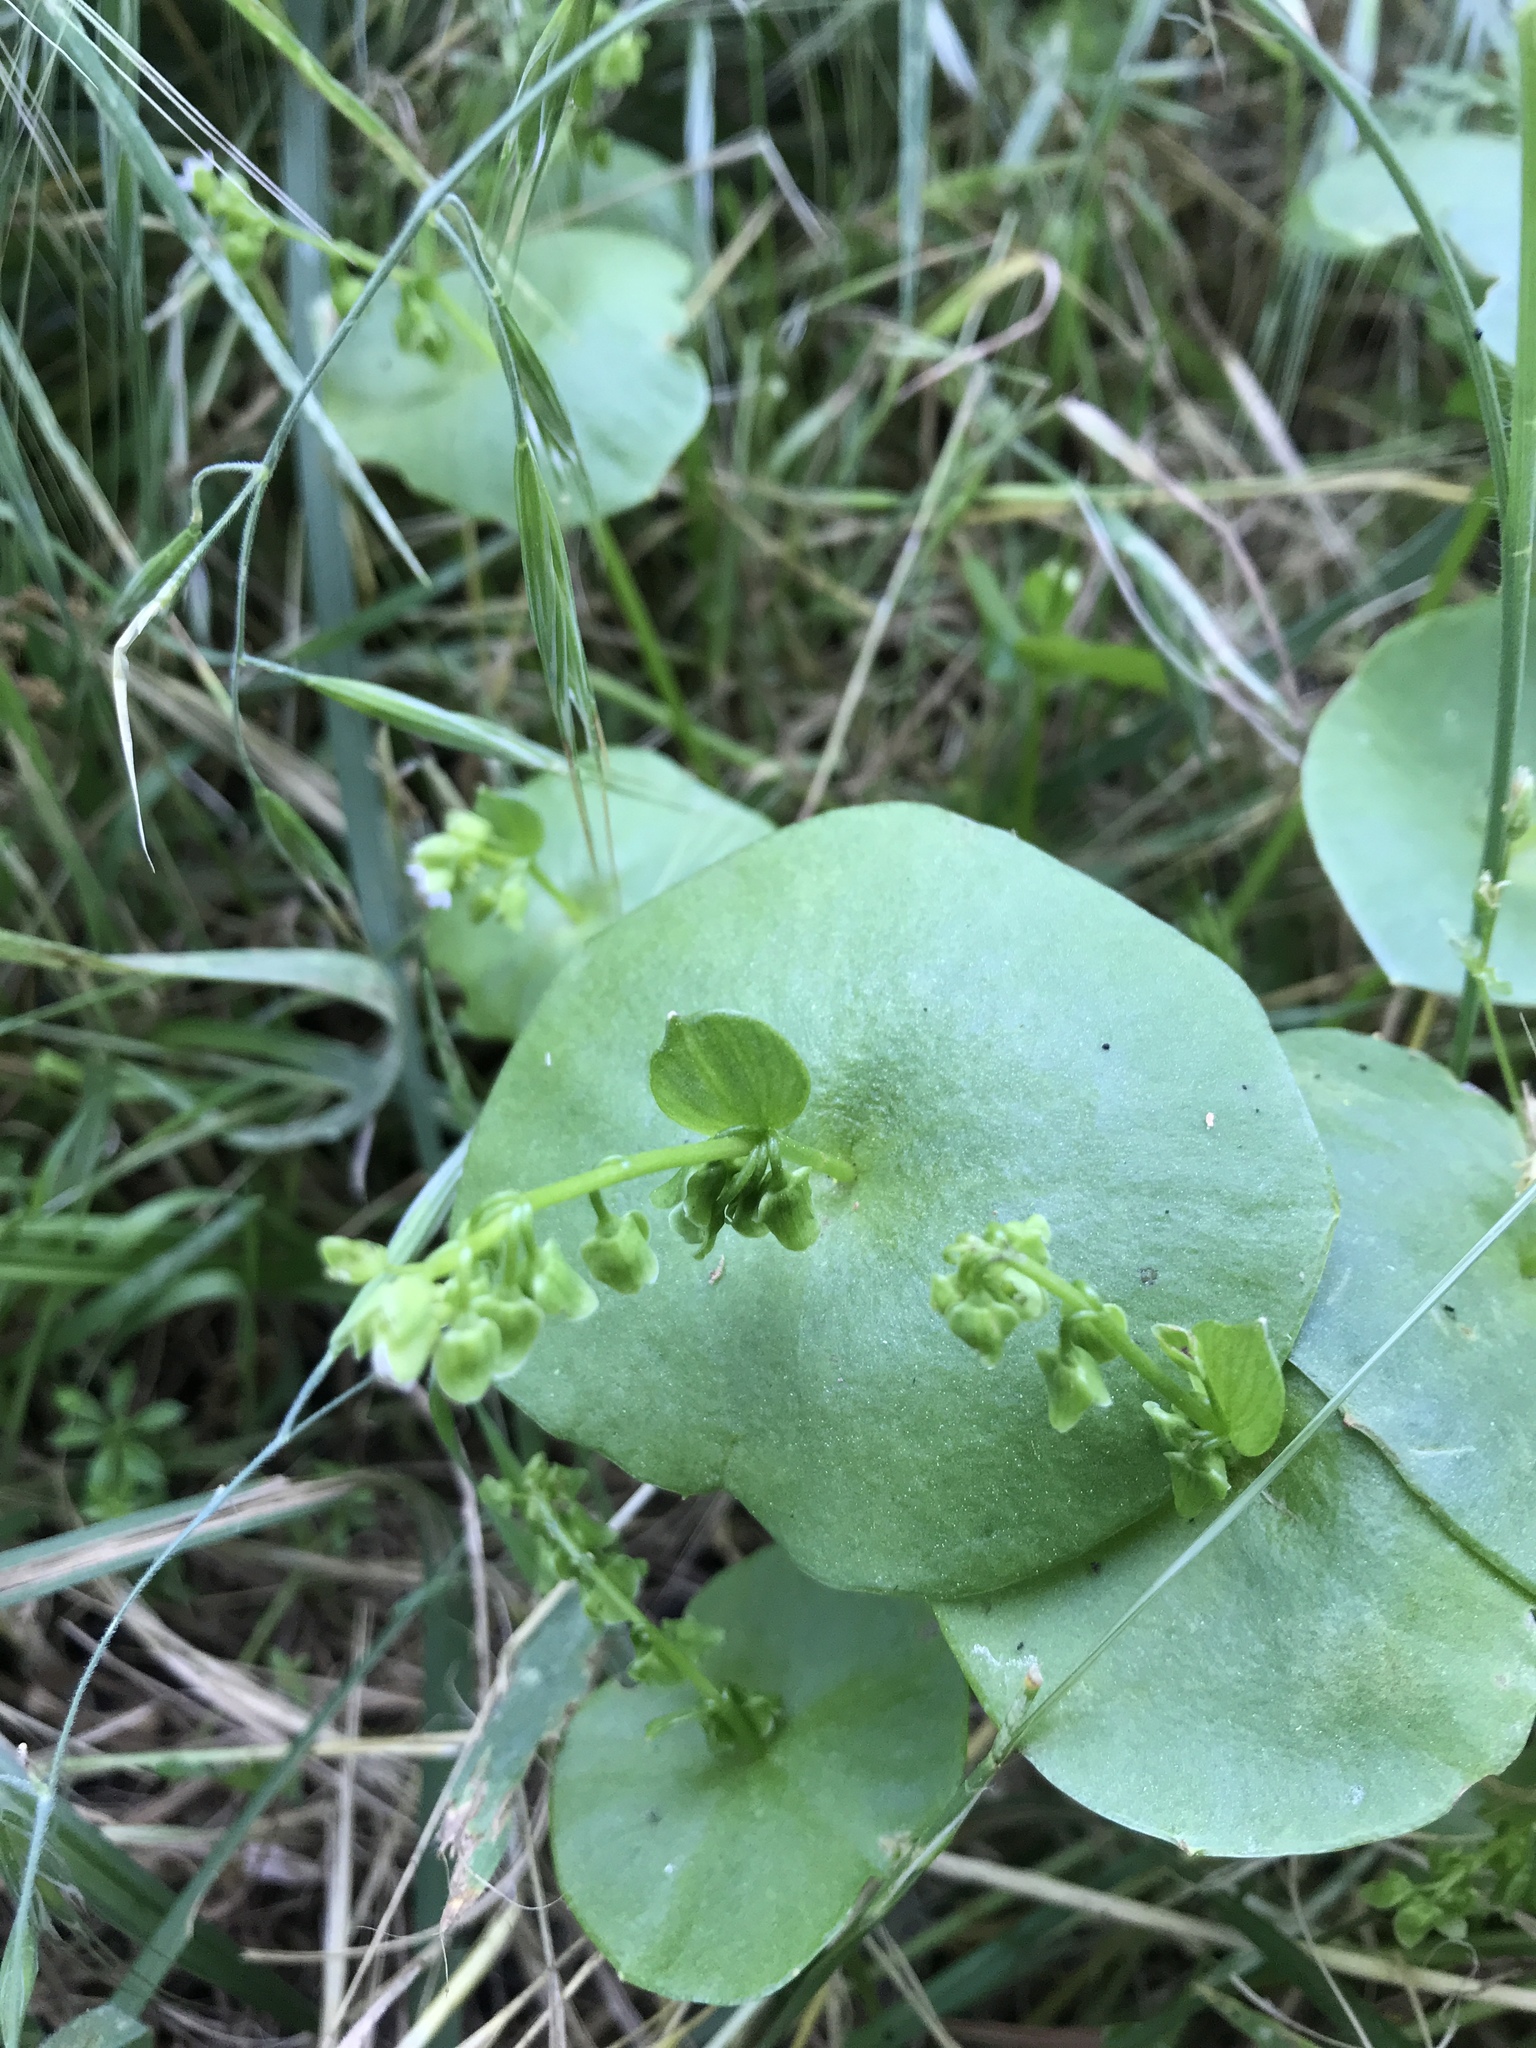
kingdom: Plantae
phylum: Tracheophyta
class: Magnoliopsida
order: Caryophyllales
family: Montiaceae
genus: Claytonia
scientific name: Claytonia perfoliata
